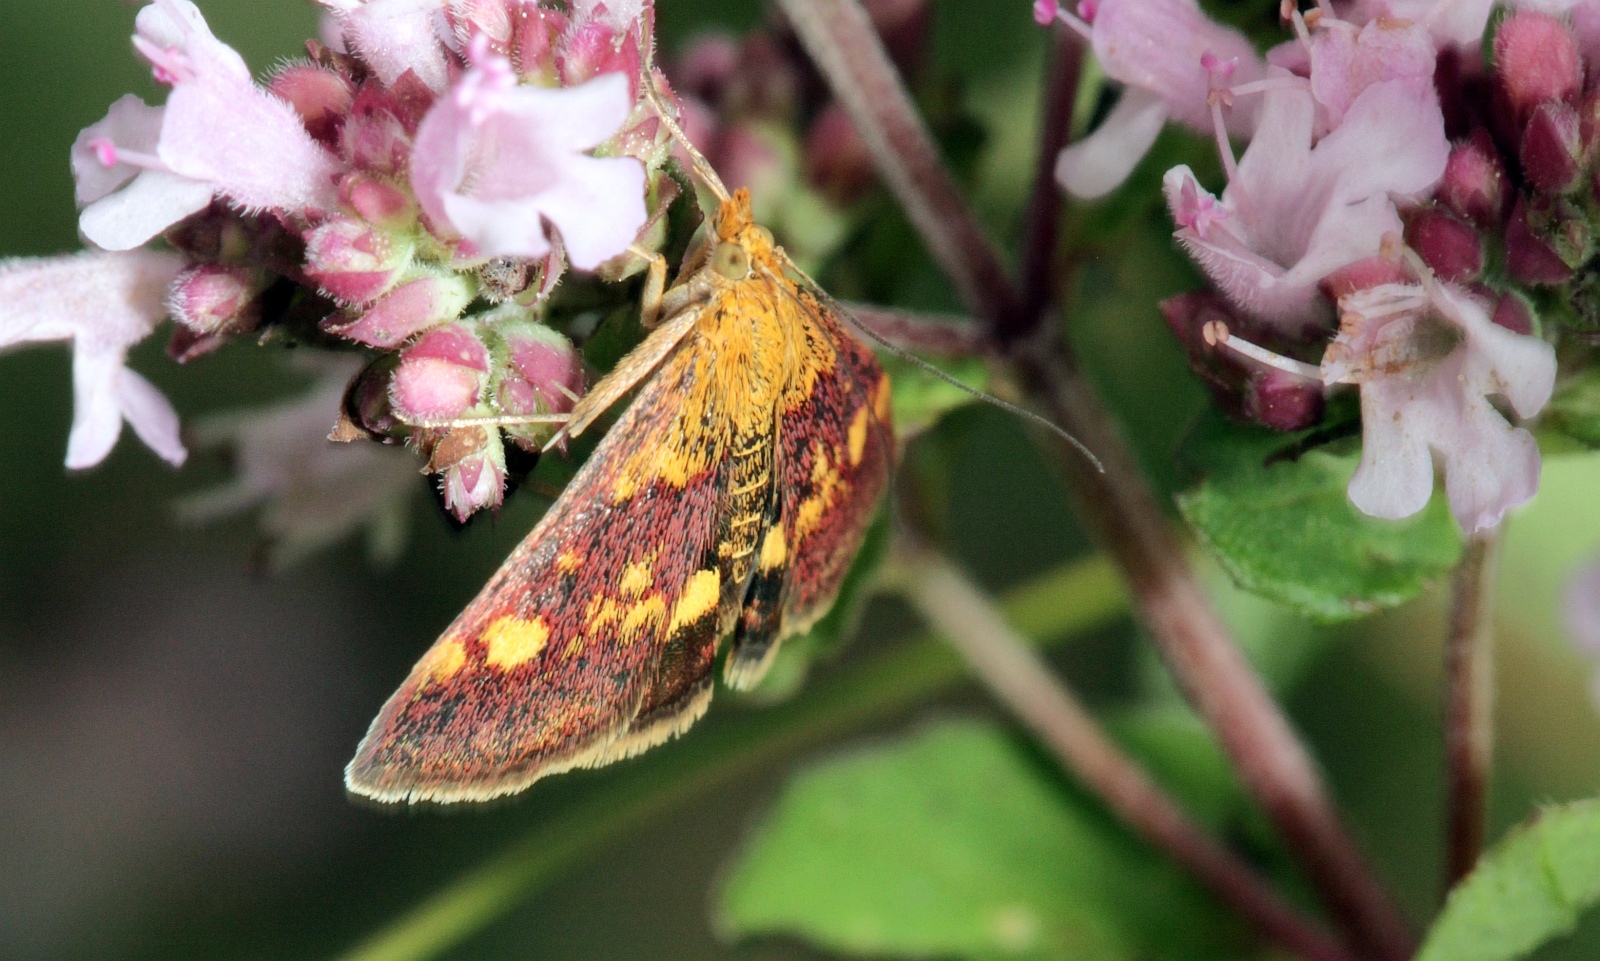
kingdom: Animalia
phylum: Arthropoda
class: Insecta
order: Lepidoptera
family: Crambidae
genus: Pyrausta
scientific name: Pyrausta aurata
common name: Small purple & gold
